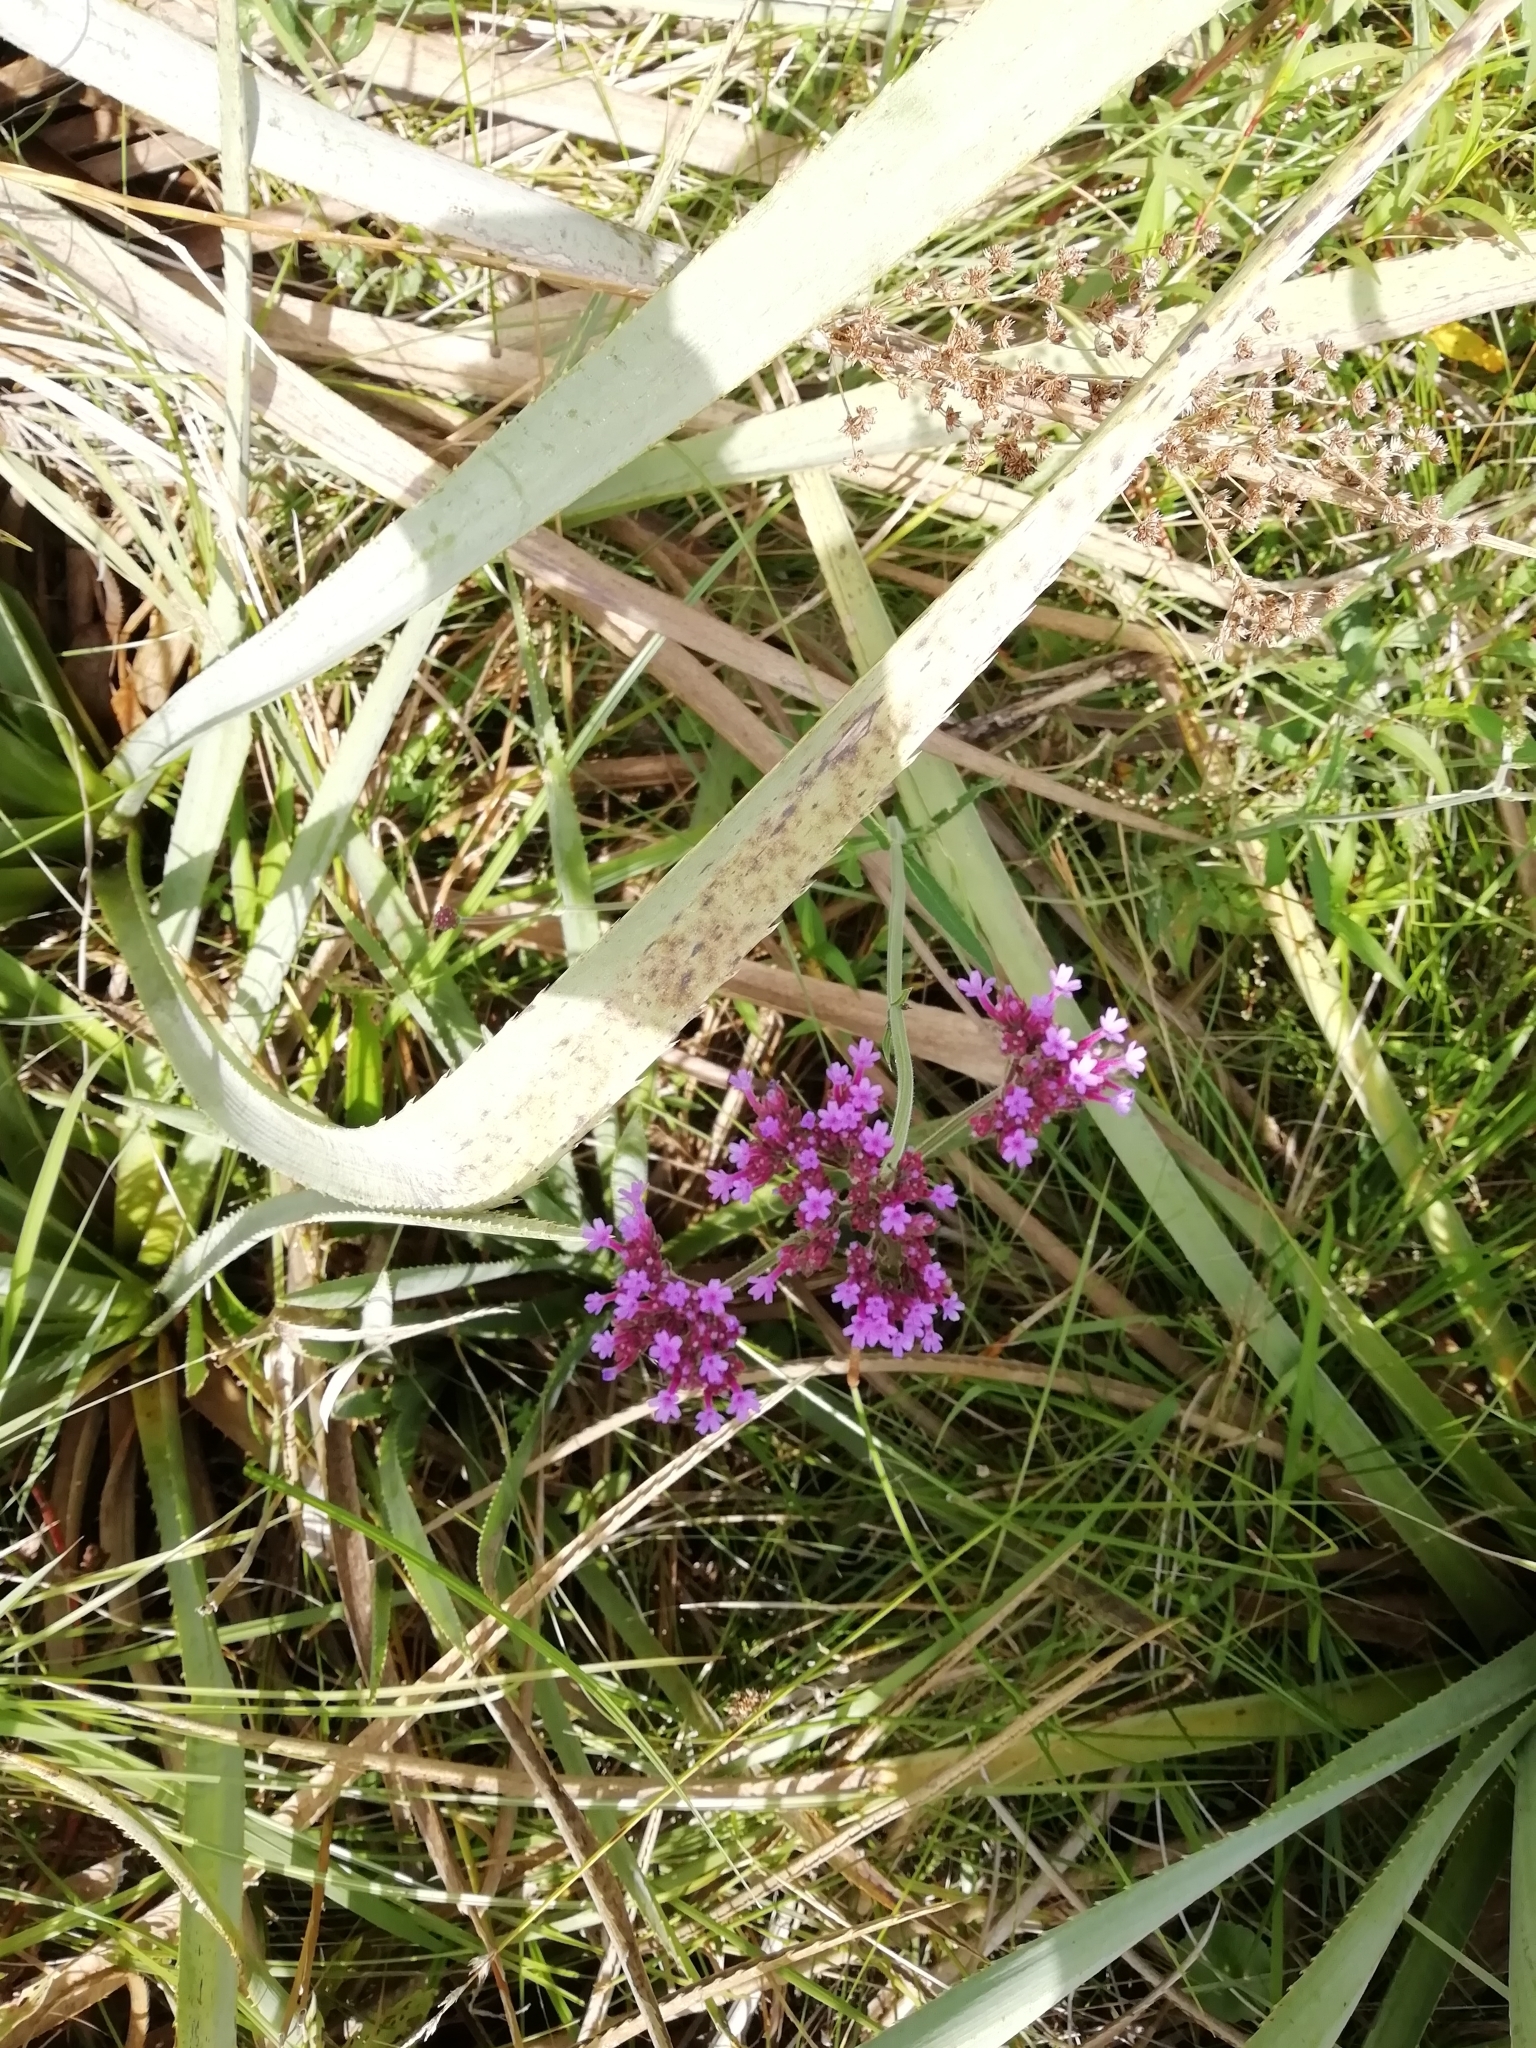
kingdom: Plantae
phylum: Tracheophyta
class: Magnoliopsida
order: Lamiales
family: Verbenaceae
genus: Verbena
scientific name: Verbena bonariensis
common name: Purpletop vervain
